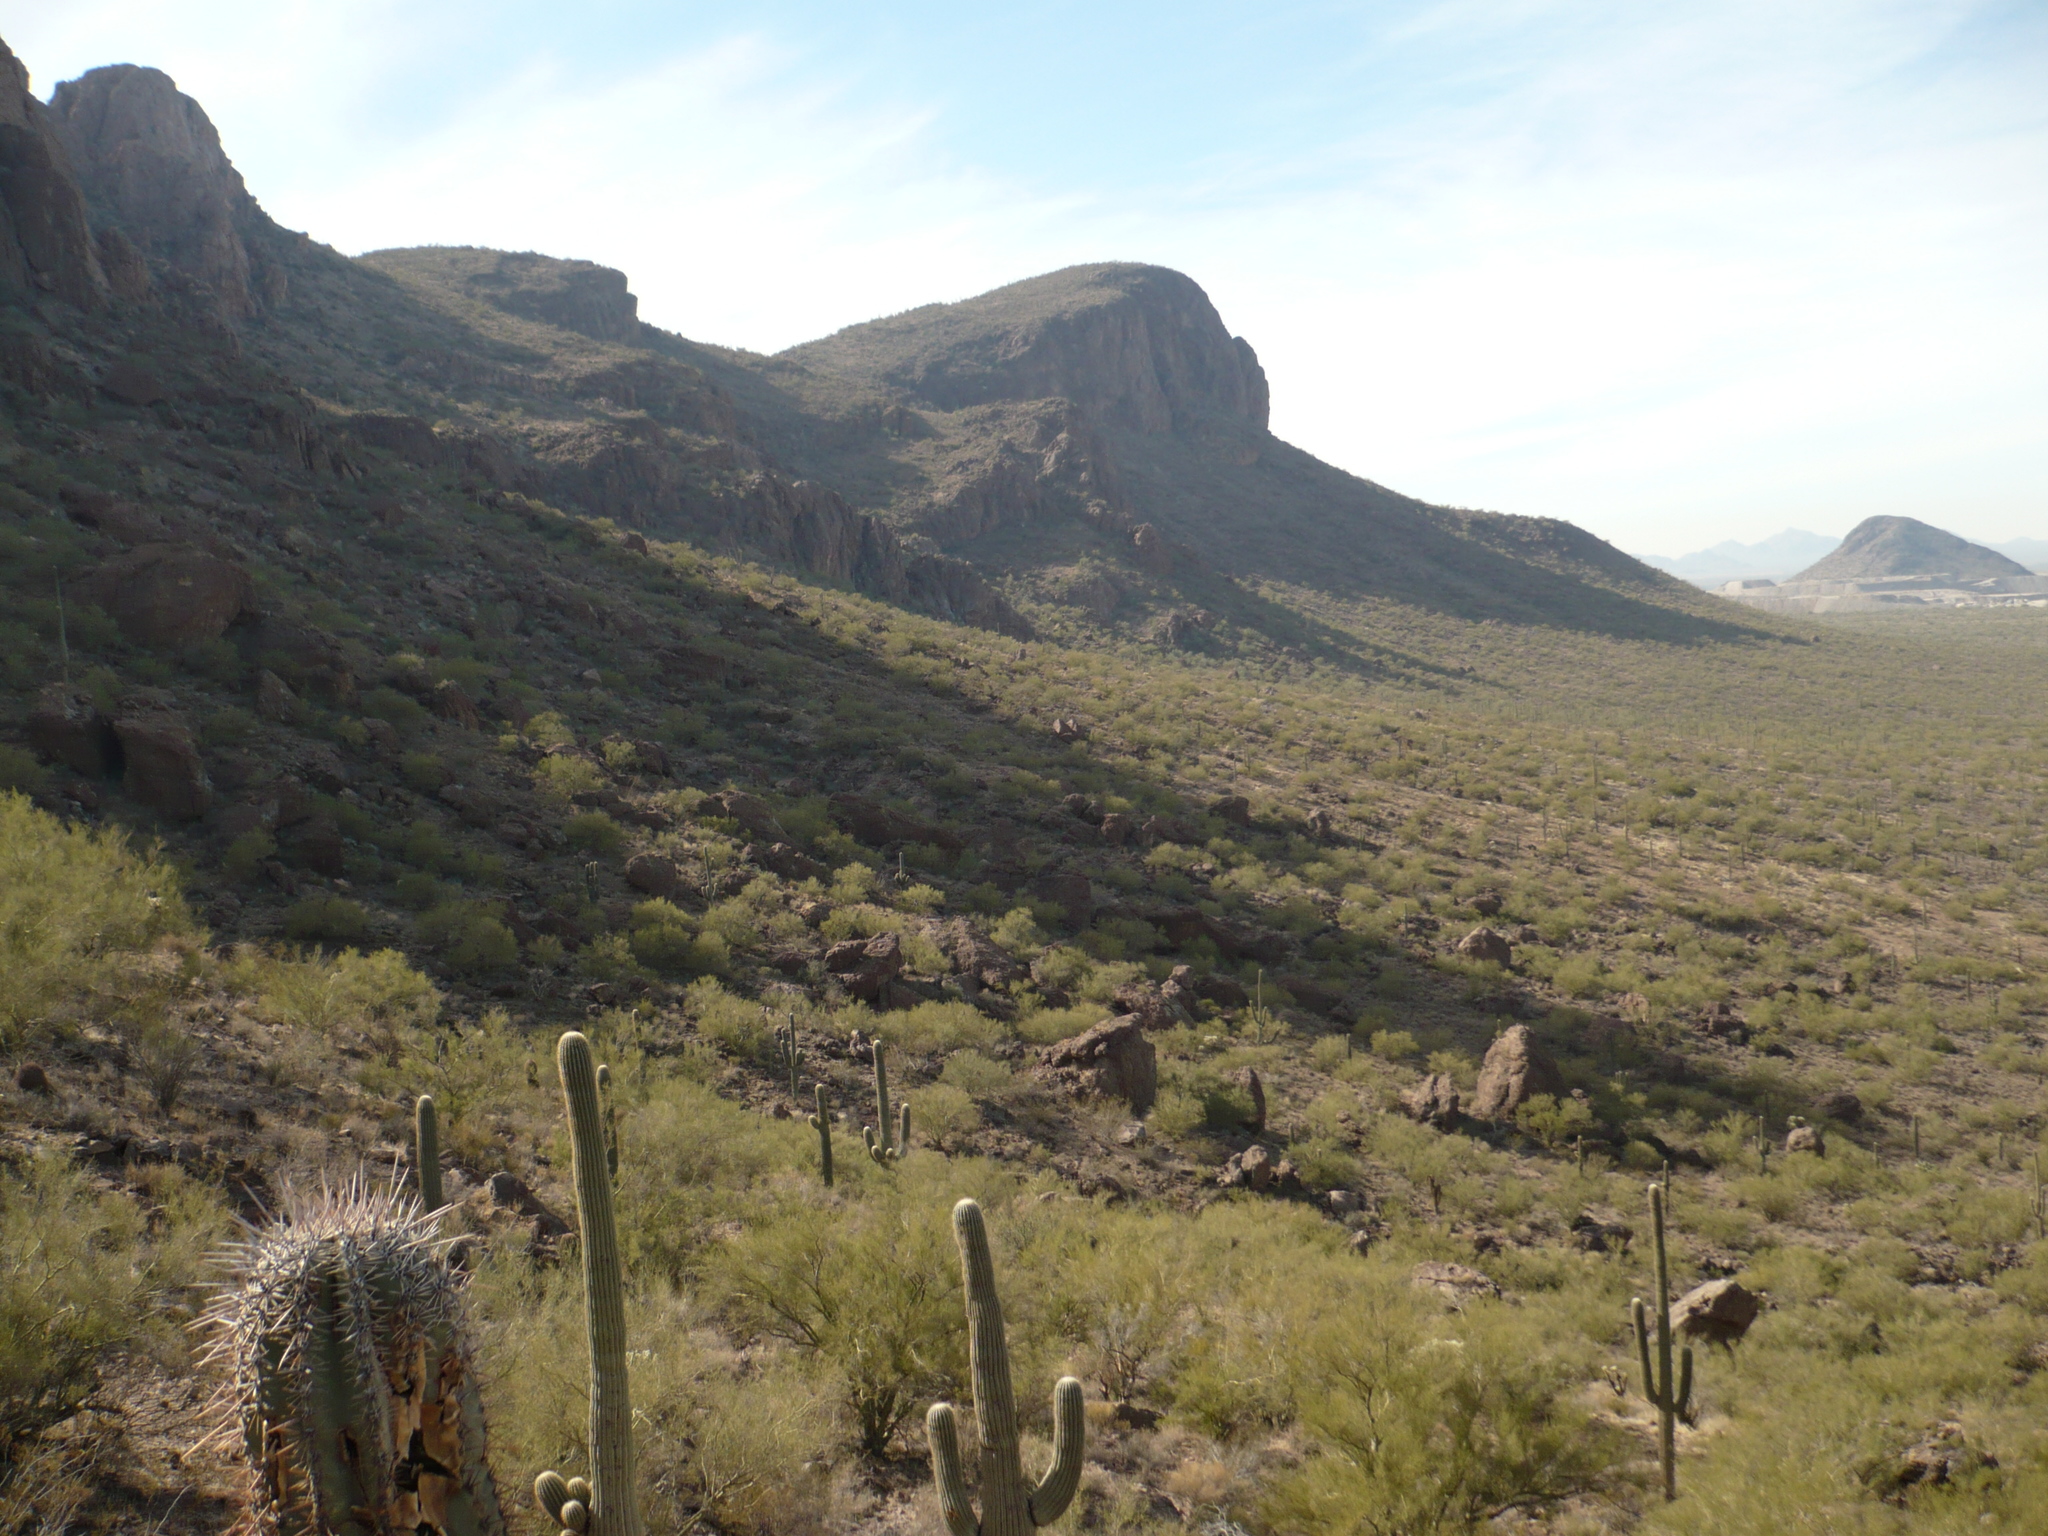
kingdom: Plantae
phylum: Tracheophyta
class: Magnoliopsida
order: Caryophyllales
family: Cactaceae
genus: Carnegiea
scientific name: Carnegiea gigantea
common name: Saguaro
